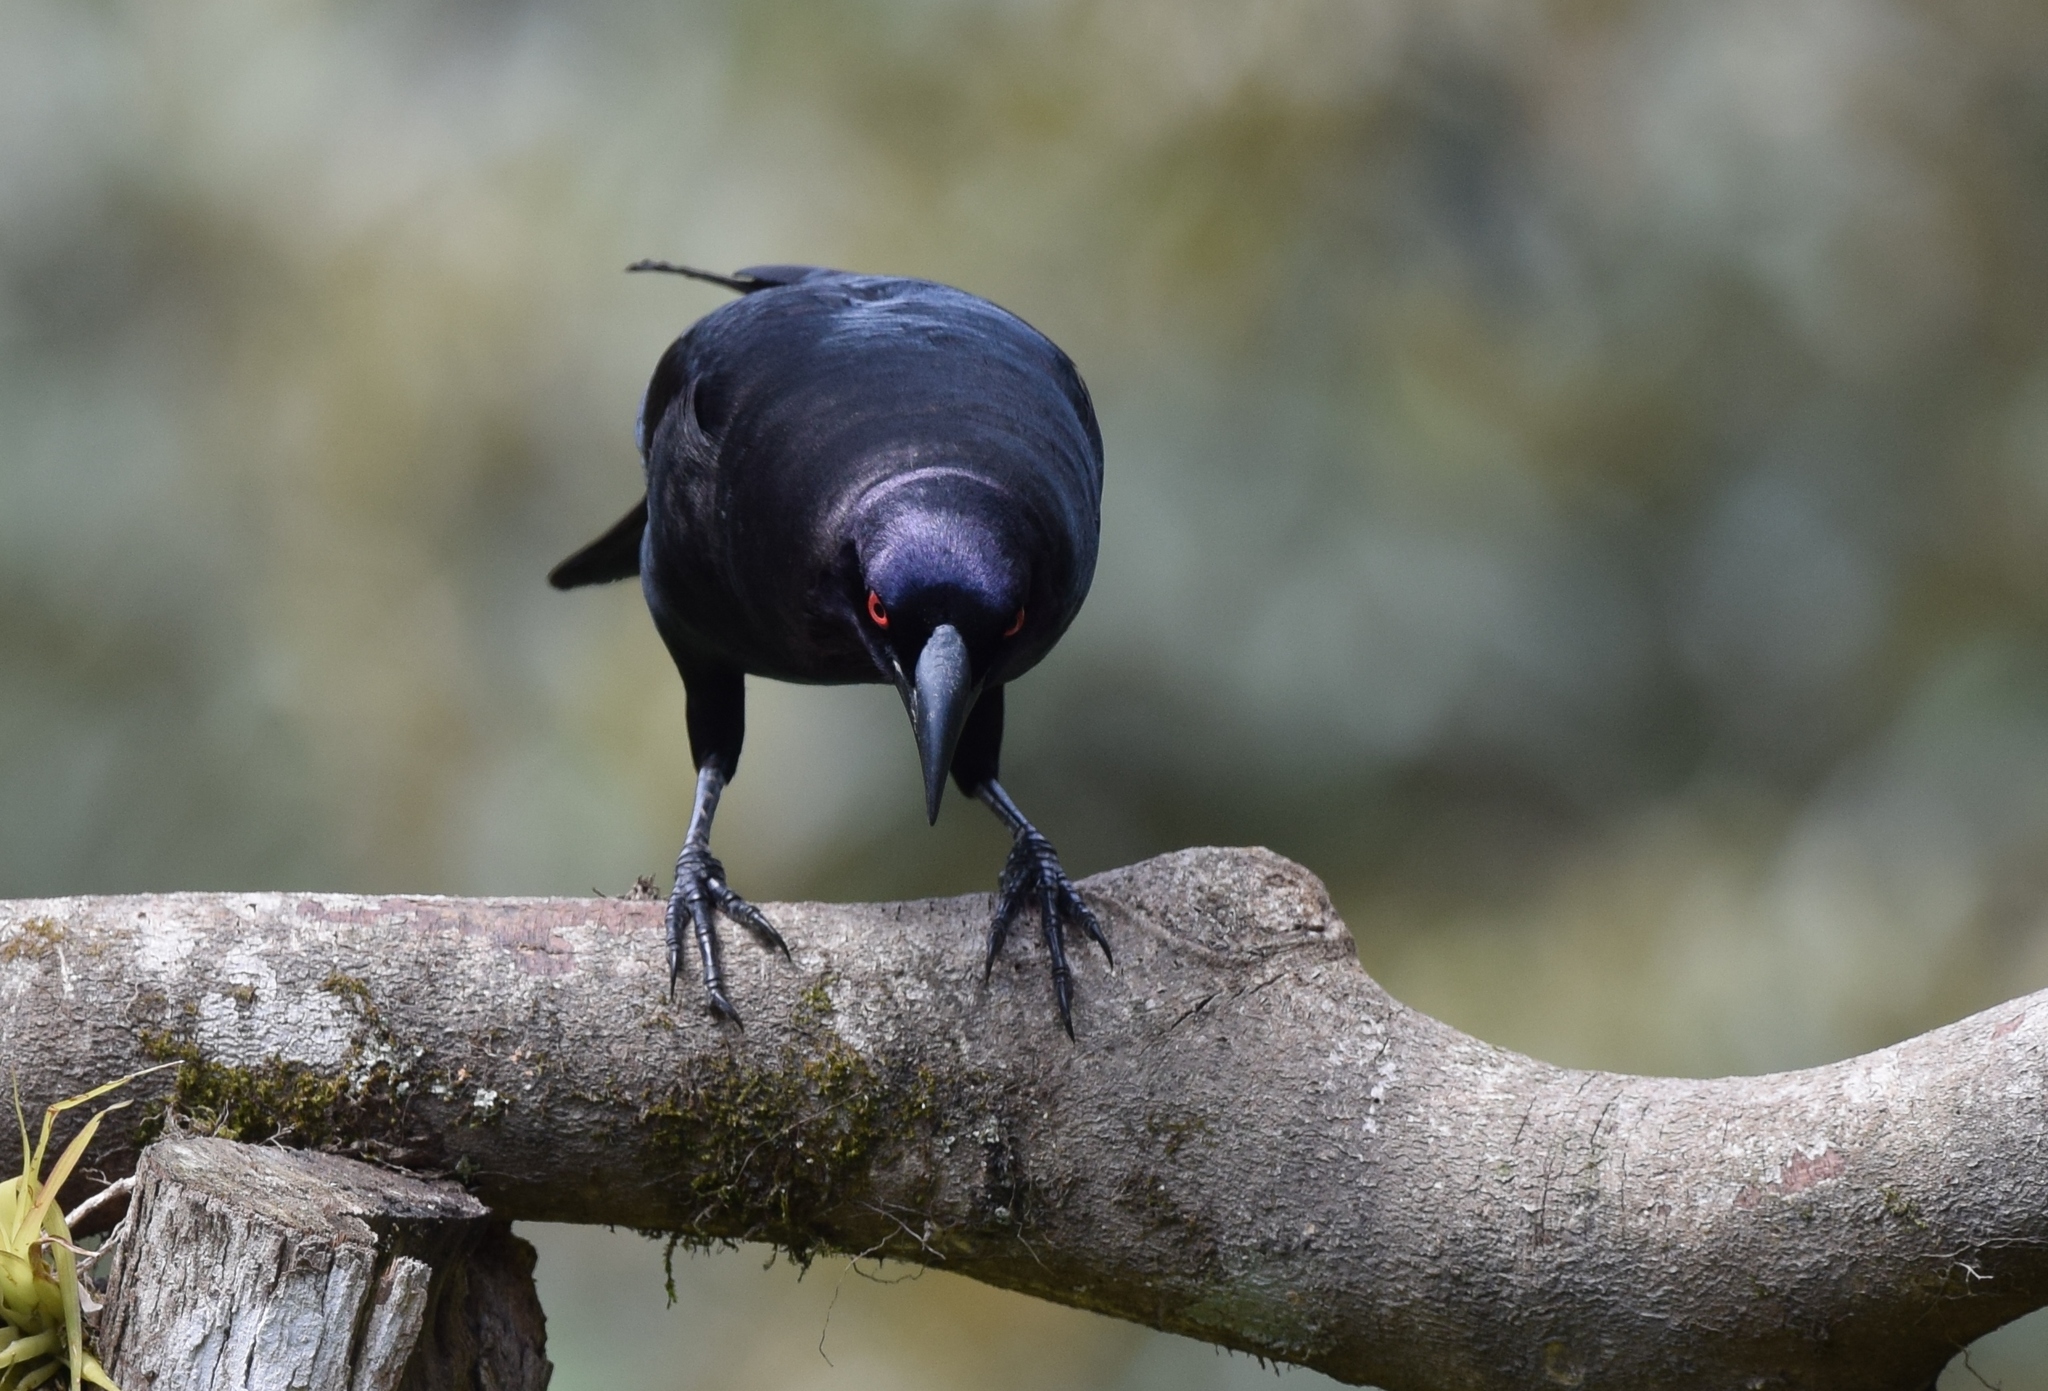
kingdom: Animalia
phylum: Chordata
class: Aves
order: Passeriformes
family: Icteridae
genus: Molothrus
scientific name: Molothrus oryzivorus
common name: Giant cowbird
